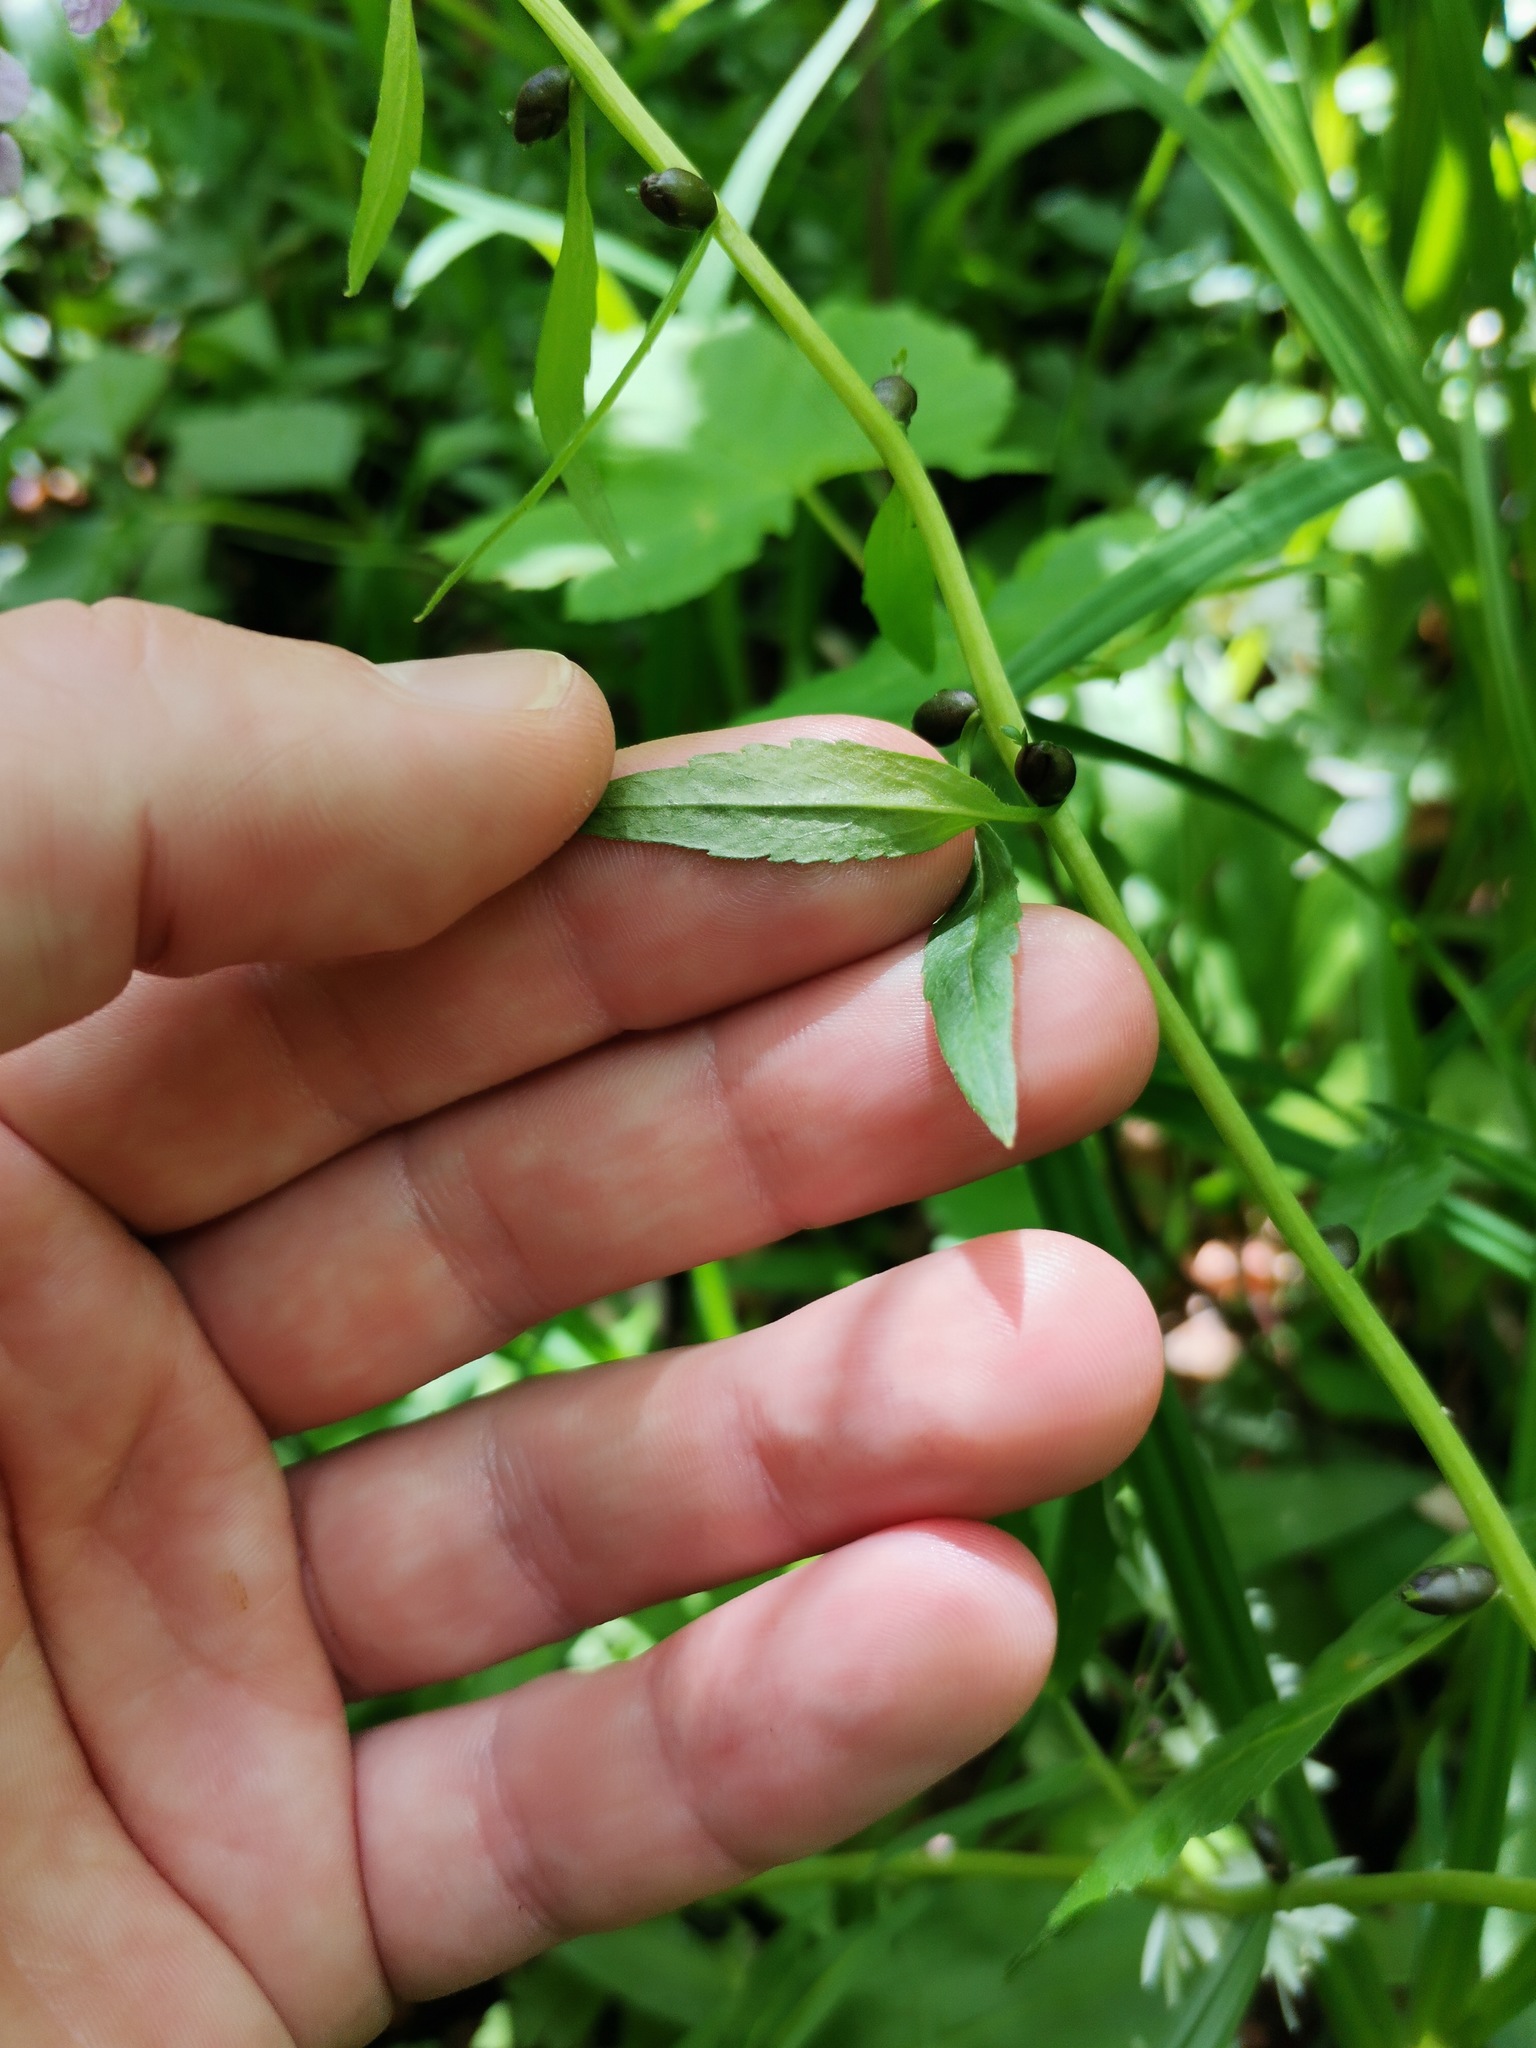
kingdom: Plantae
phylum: Tracheophyta
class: Magnoliopsida
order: Brassicales
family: Brassicaceae
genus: Cardamine
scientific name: Cardamine bulbifera
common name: Coralroot bittercress
